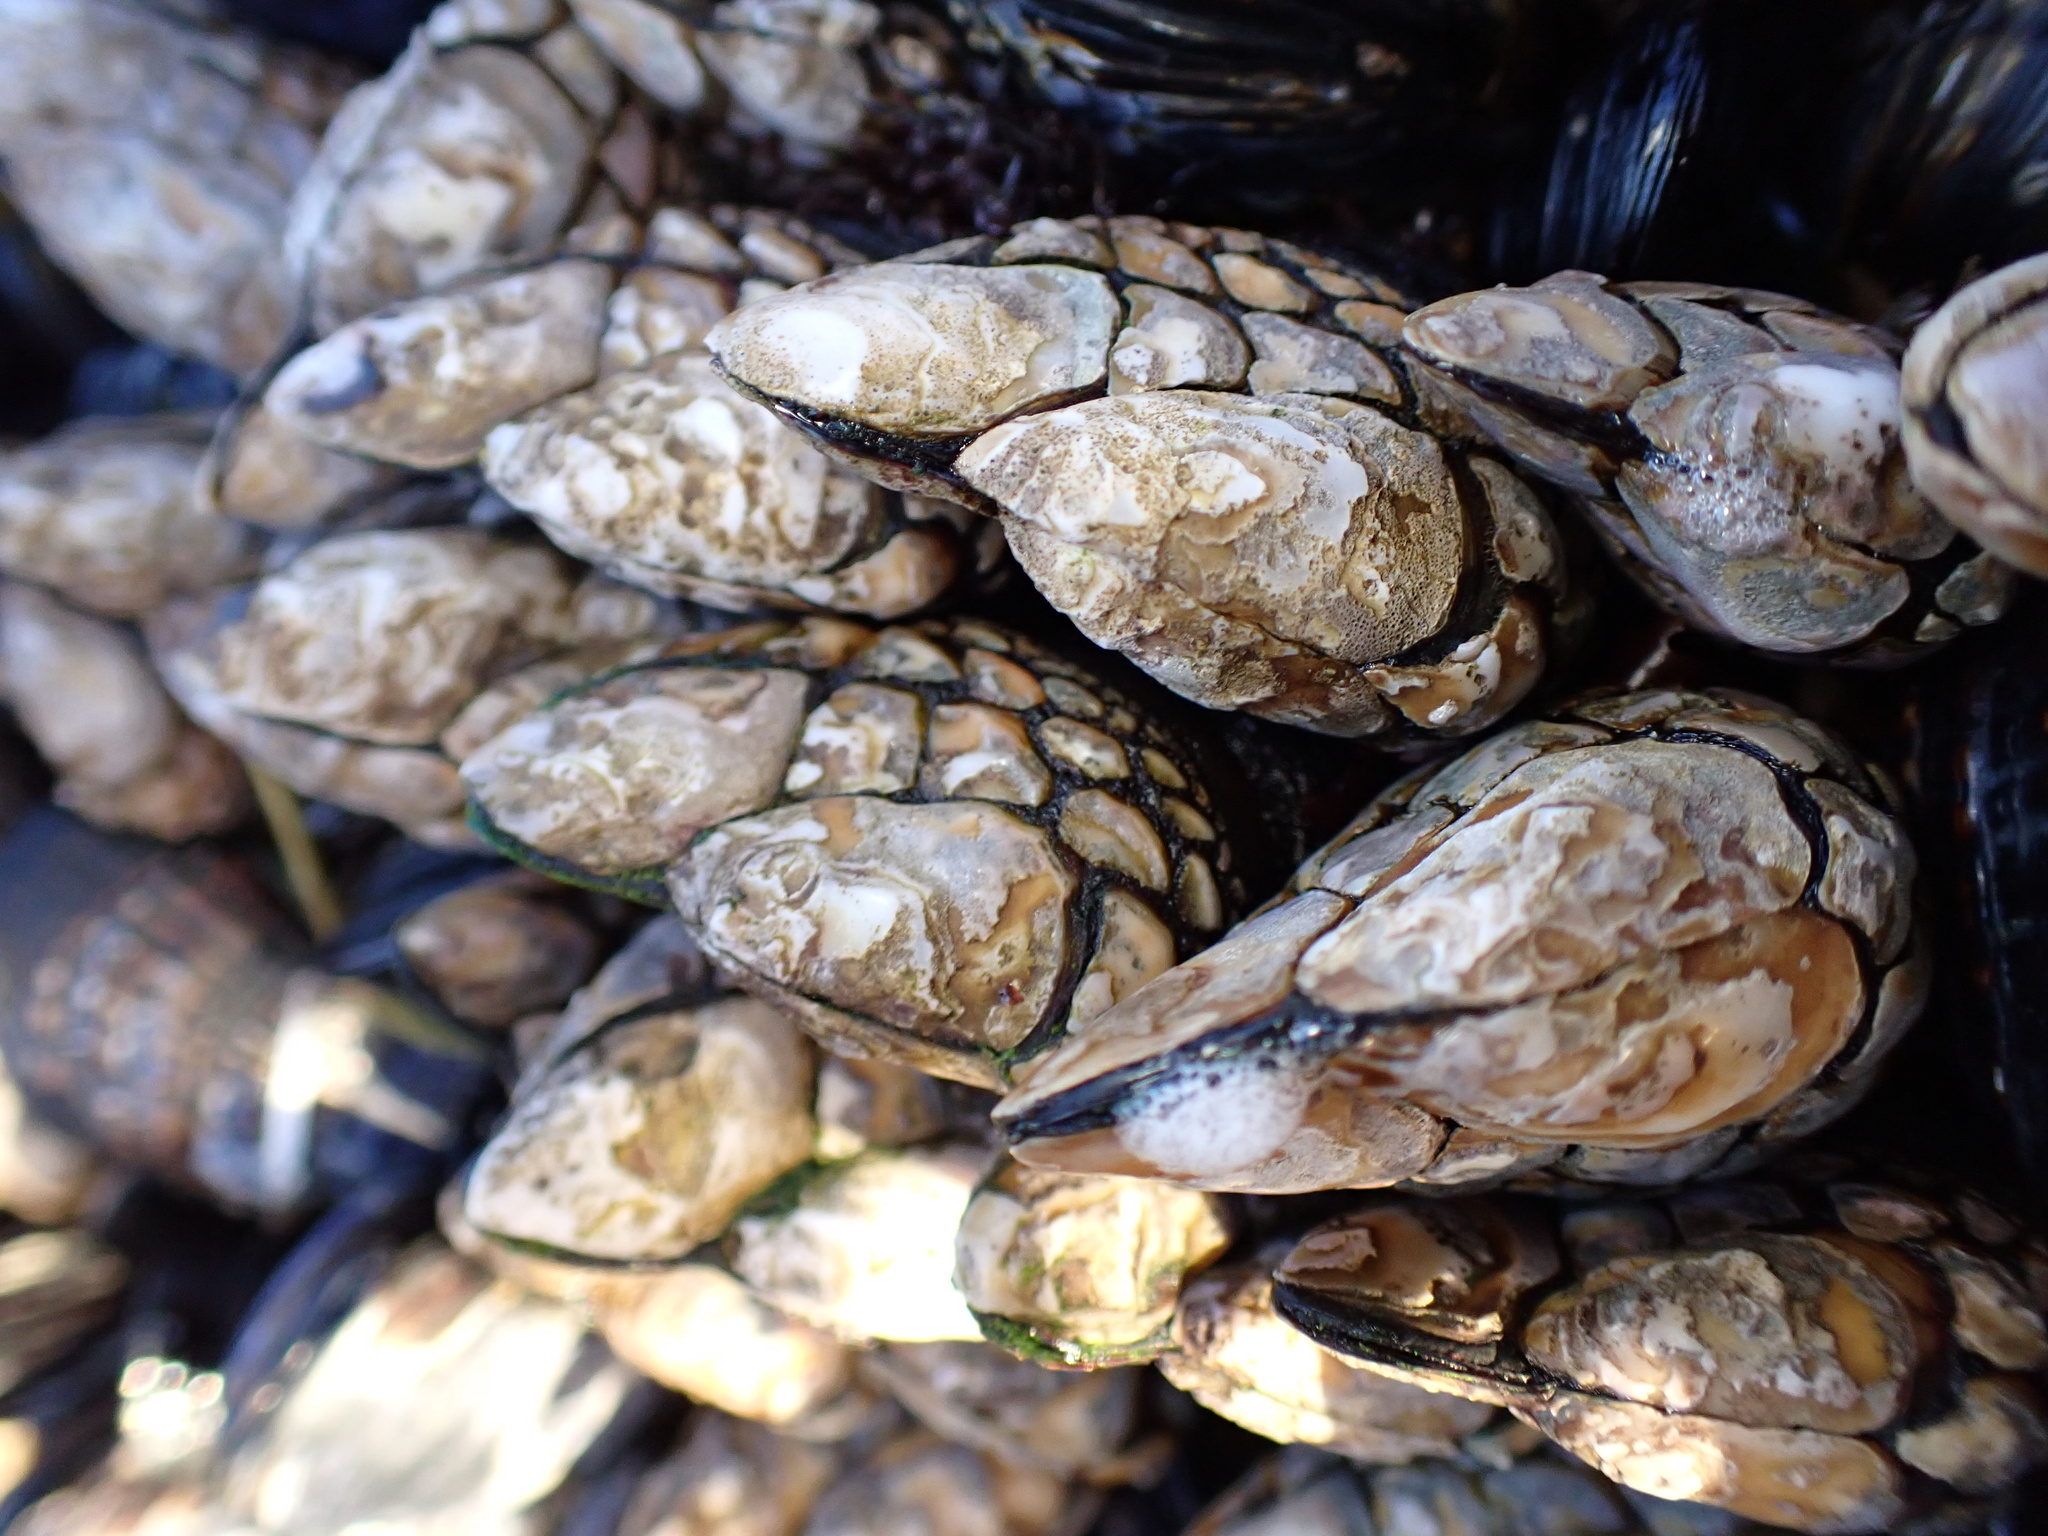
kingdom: Animalia
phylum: Arthropoda
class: Maxillopoda
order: Pedunculata
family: Pollicipedidae
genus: Pollicipes
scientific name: Pollicipes polymerus
